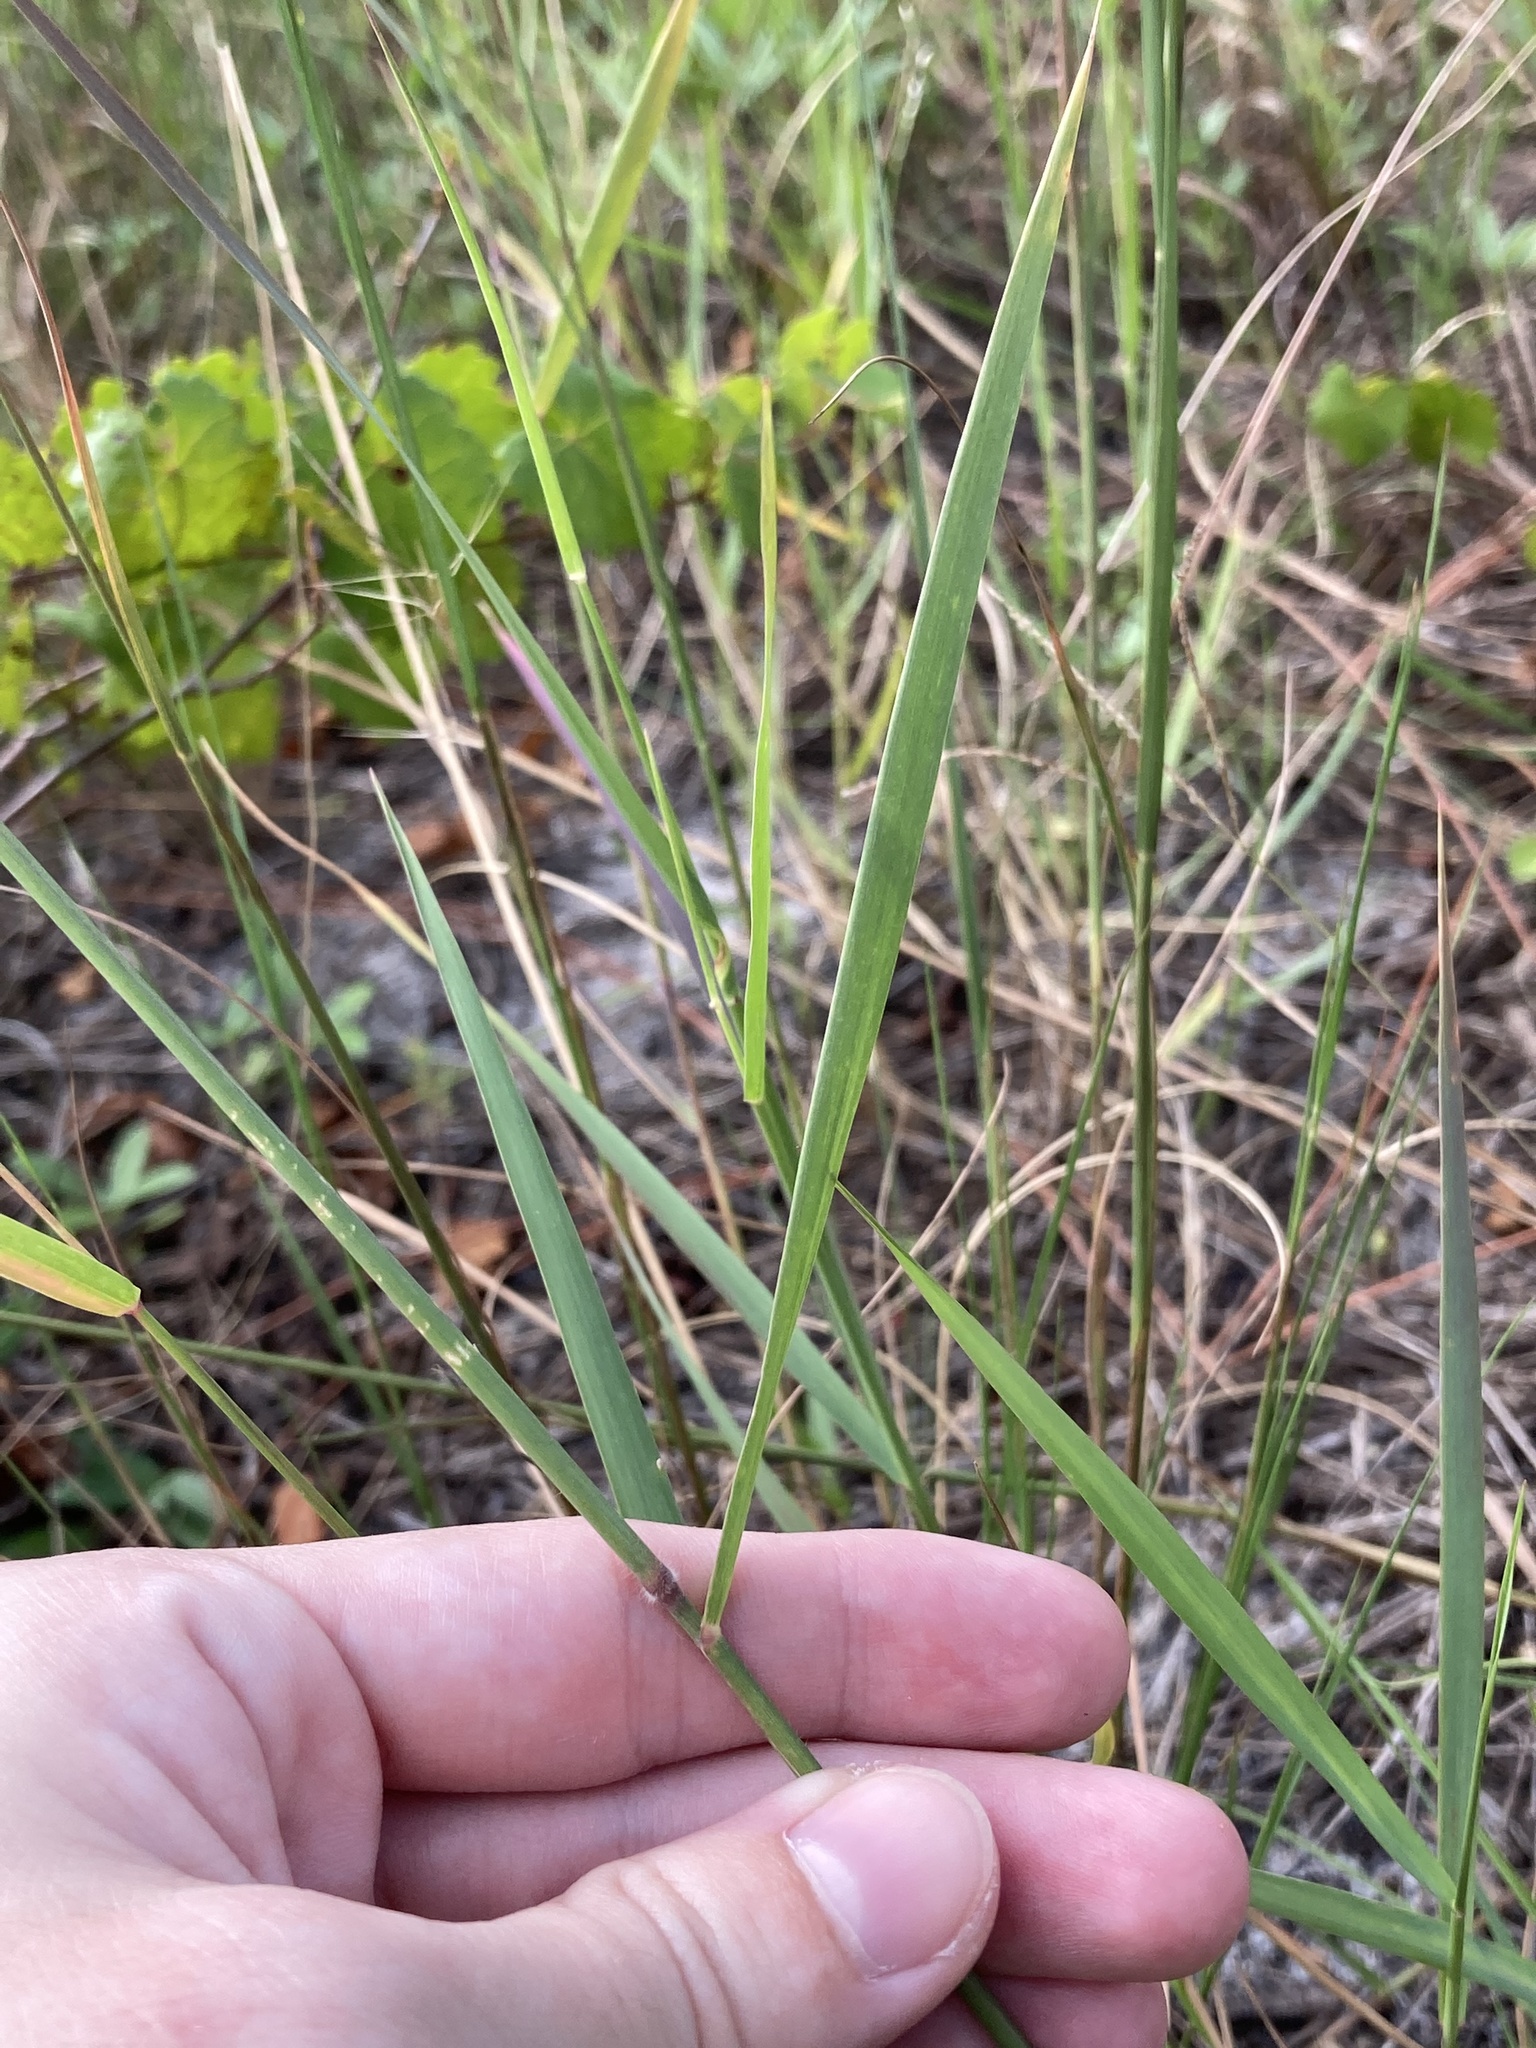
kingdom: Plantae
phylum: Tracheophyta
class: Liliopsida
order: Poales
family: Poaceae
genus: Melinis
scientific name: Melinis repens
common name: Rose natal grass
